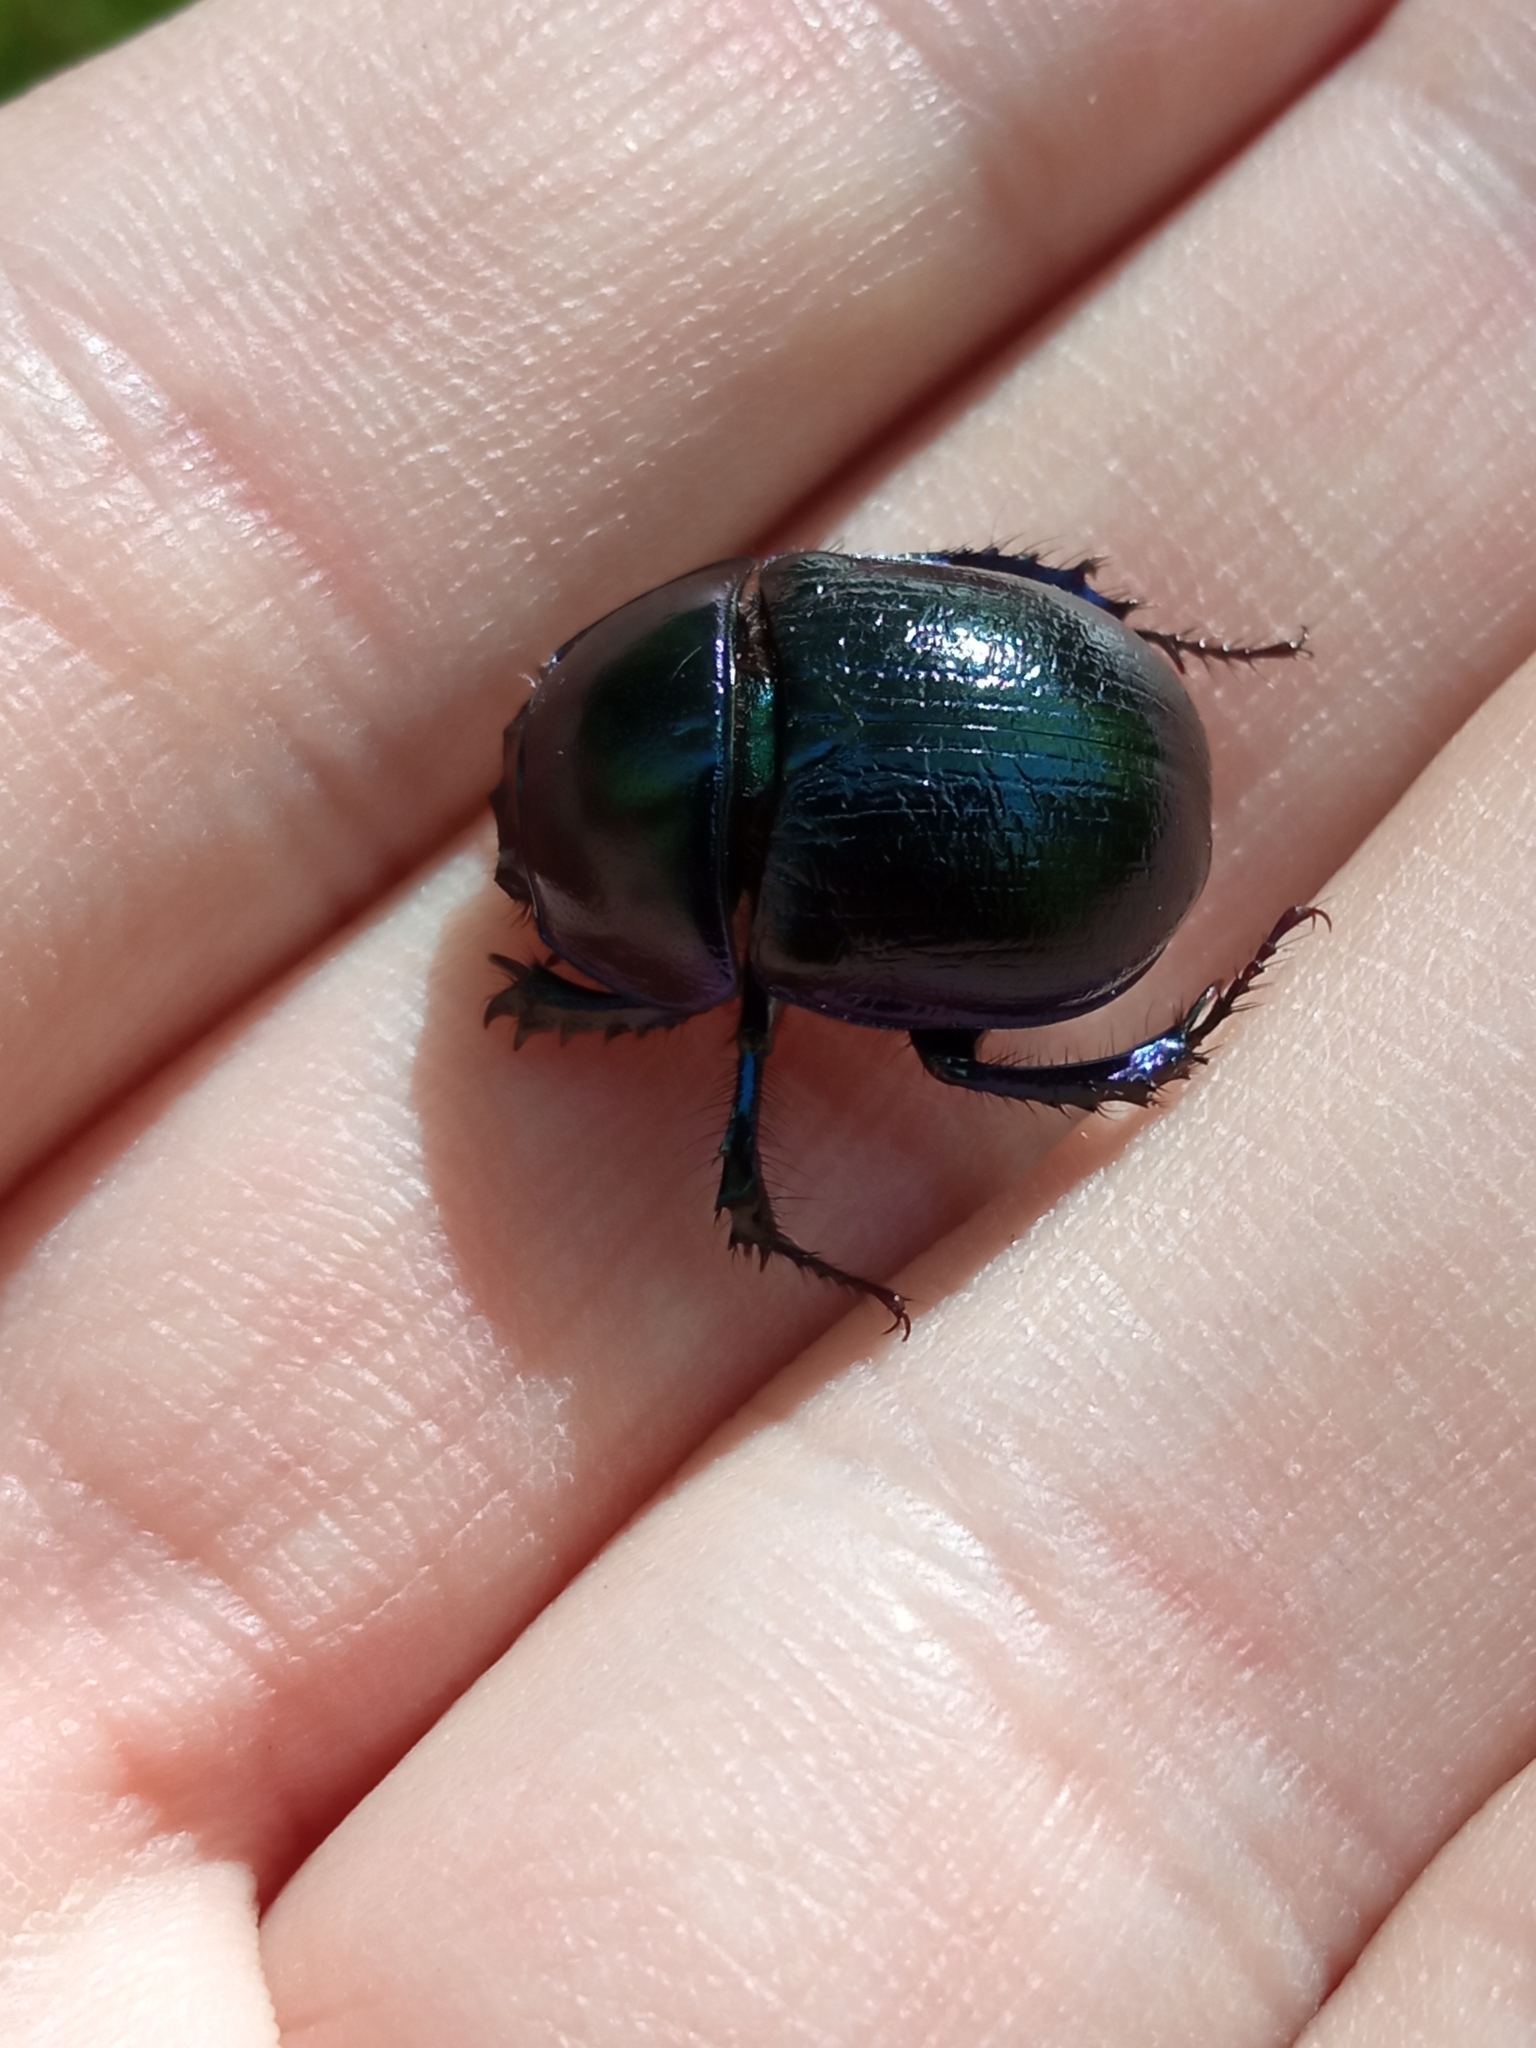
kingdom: Animalia
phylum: Arthropoda
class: Insecta
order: Coleoptera
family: Geotrupidae
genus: Anoplotrupes
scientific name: Anoplotrupes stercorosus
